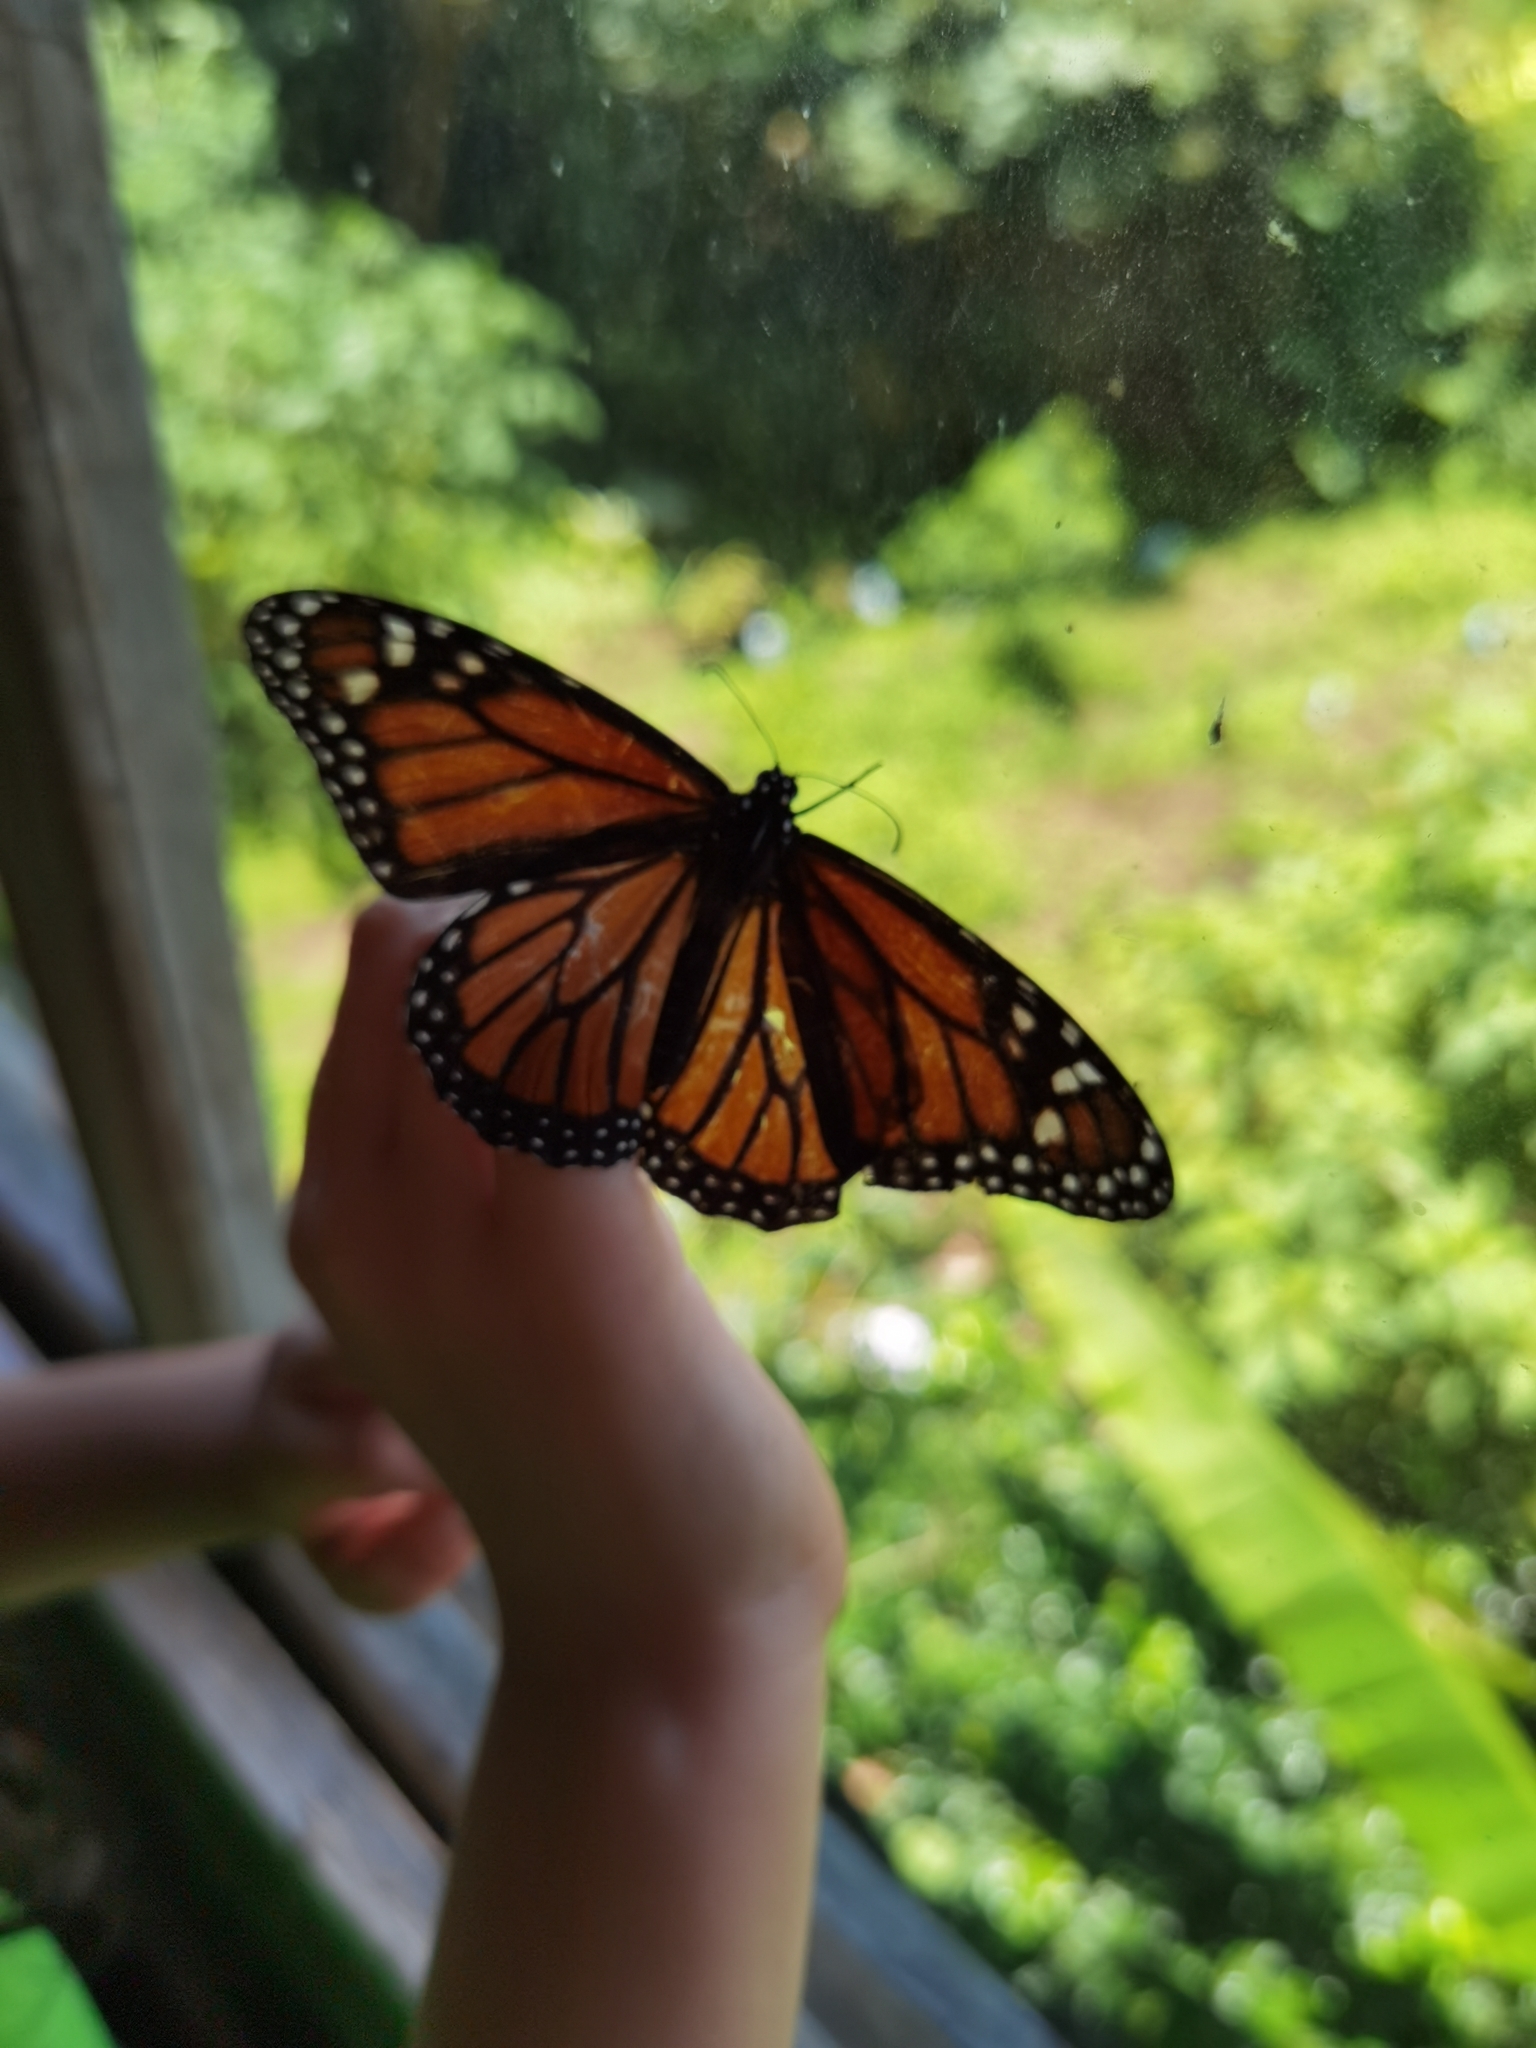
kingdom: Animalia
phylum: Arthropoda
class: Insecta
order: Lepidoptera
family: Nymphalidae
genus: Danaus
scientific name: Danaus plexippus
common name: Monarch
